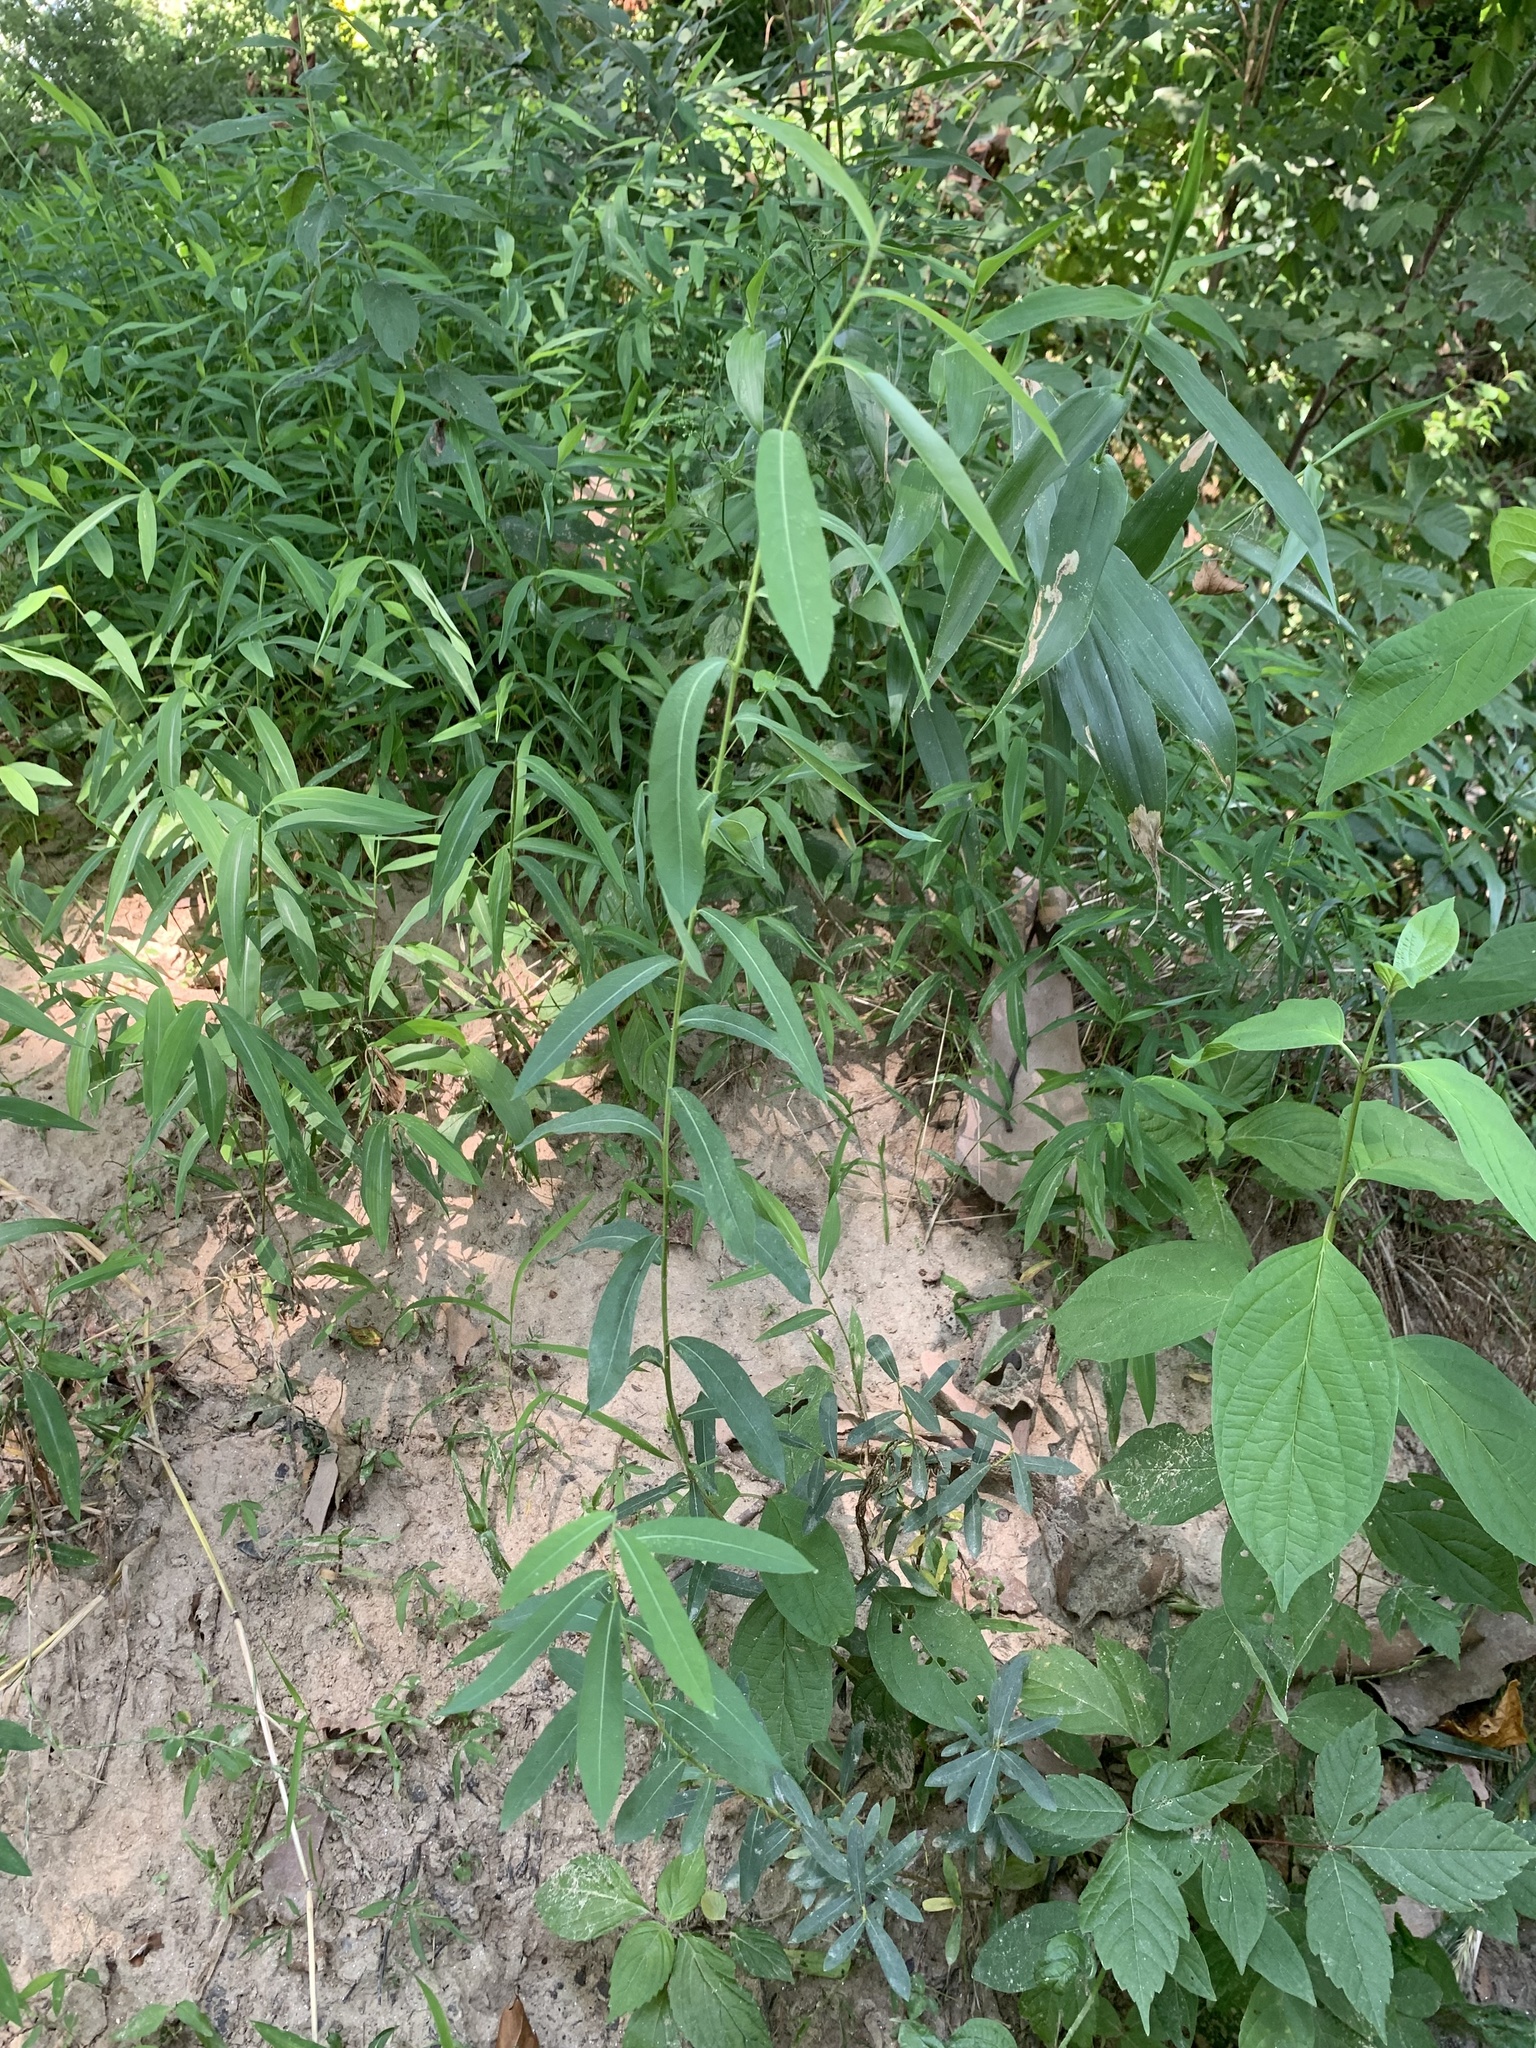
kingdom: Plantae
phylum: Tracheophyta
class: Magnoliopsida
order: Malpighiales
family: Euphorbiaceae
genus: Euphorbia
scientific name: Euphorbia corollata
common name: Flowering spurge
